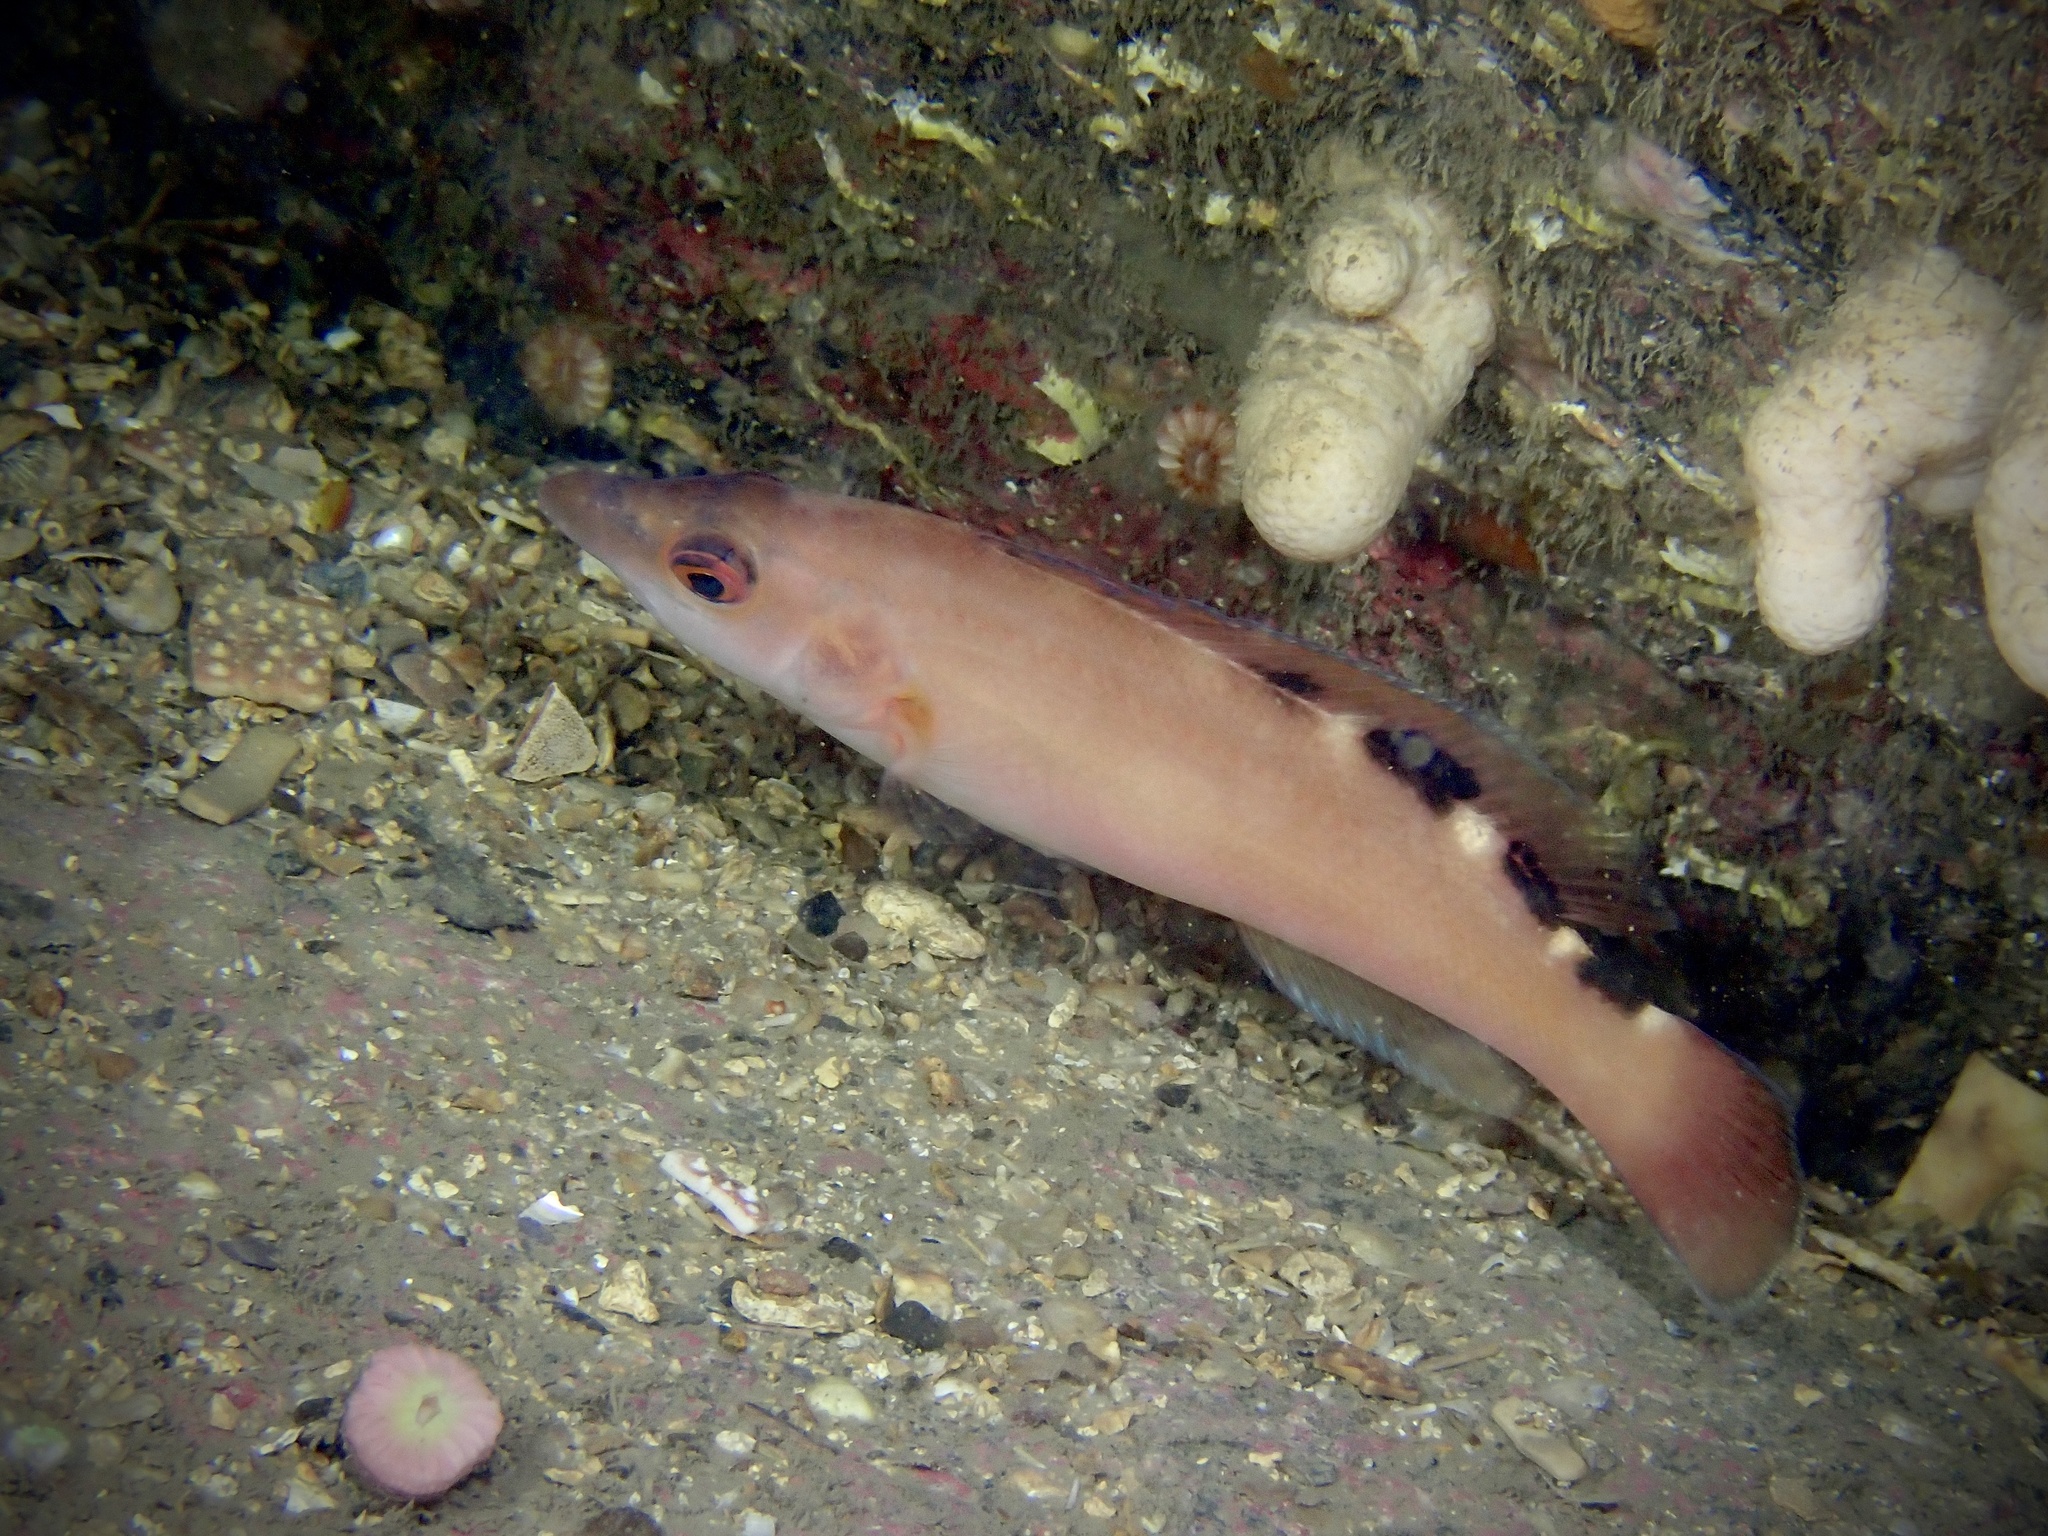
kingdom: Animalia
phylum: Chordata
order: Perciformes
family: Labridae
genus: Labrus
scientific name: Labrus mixtus
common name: Cuckoo wrasse
